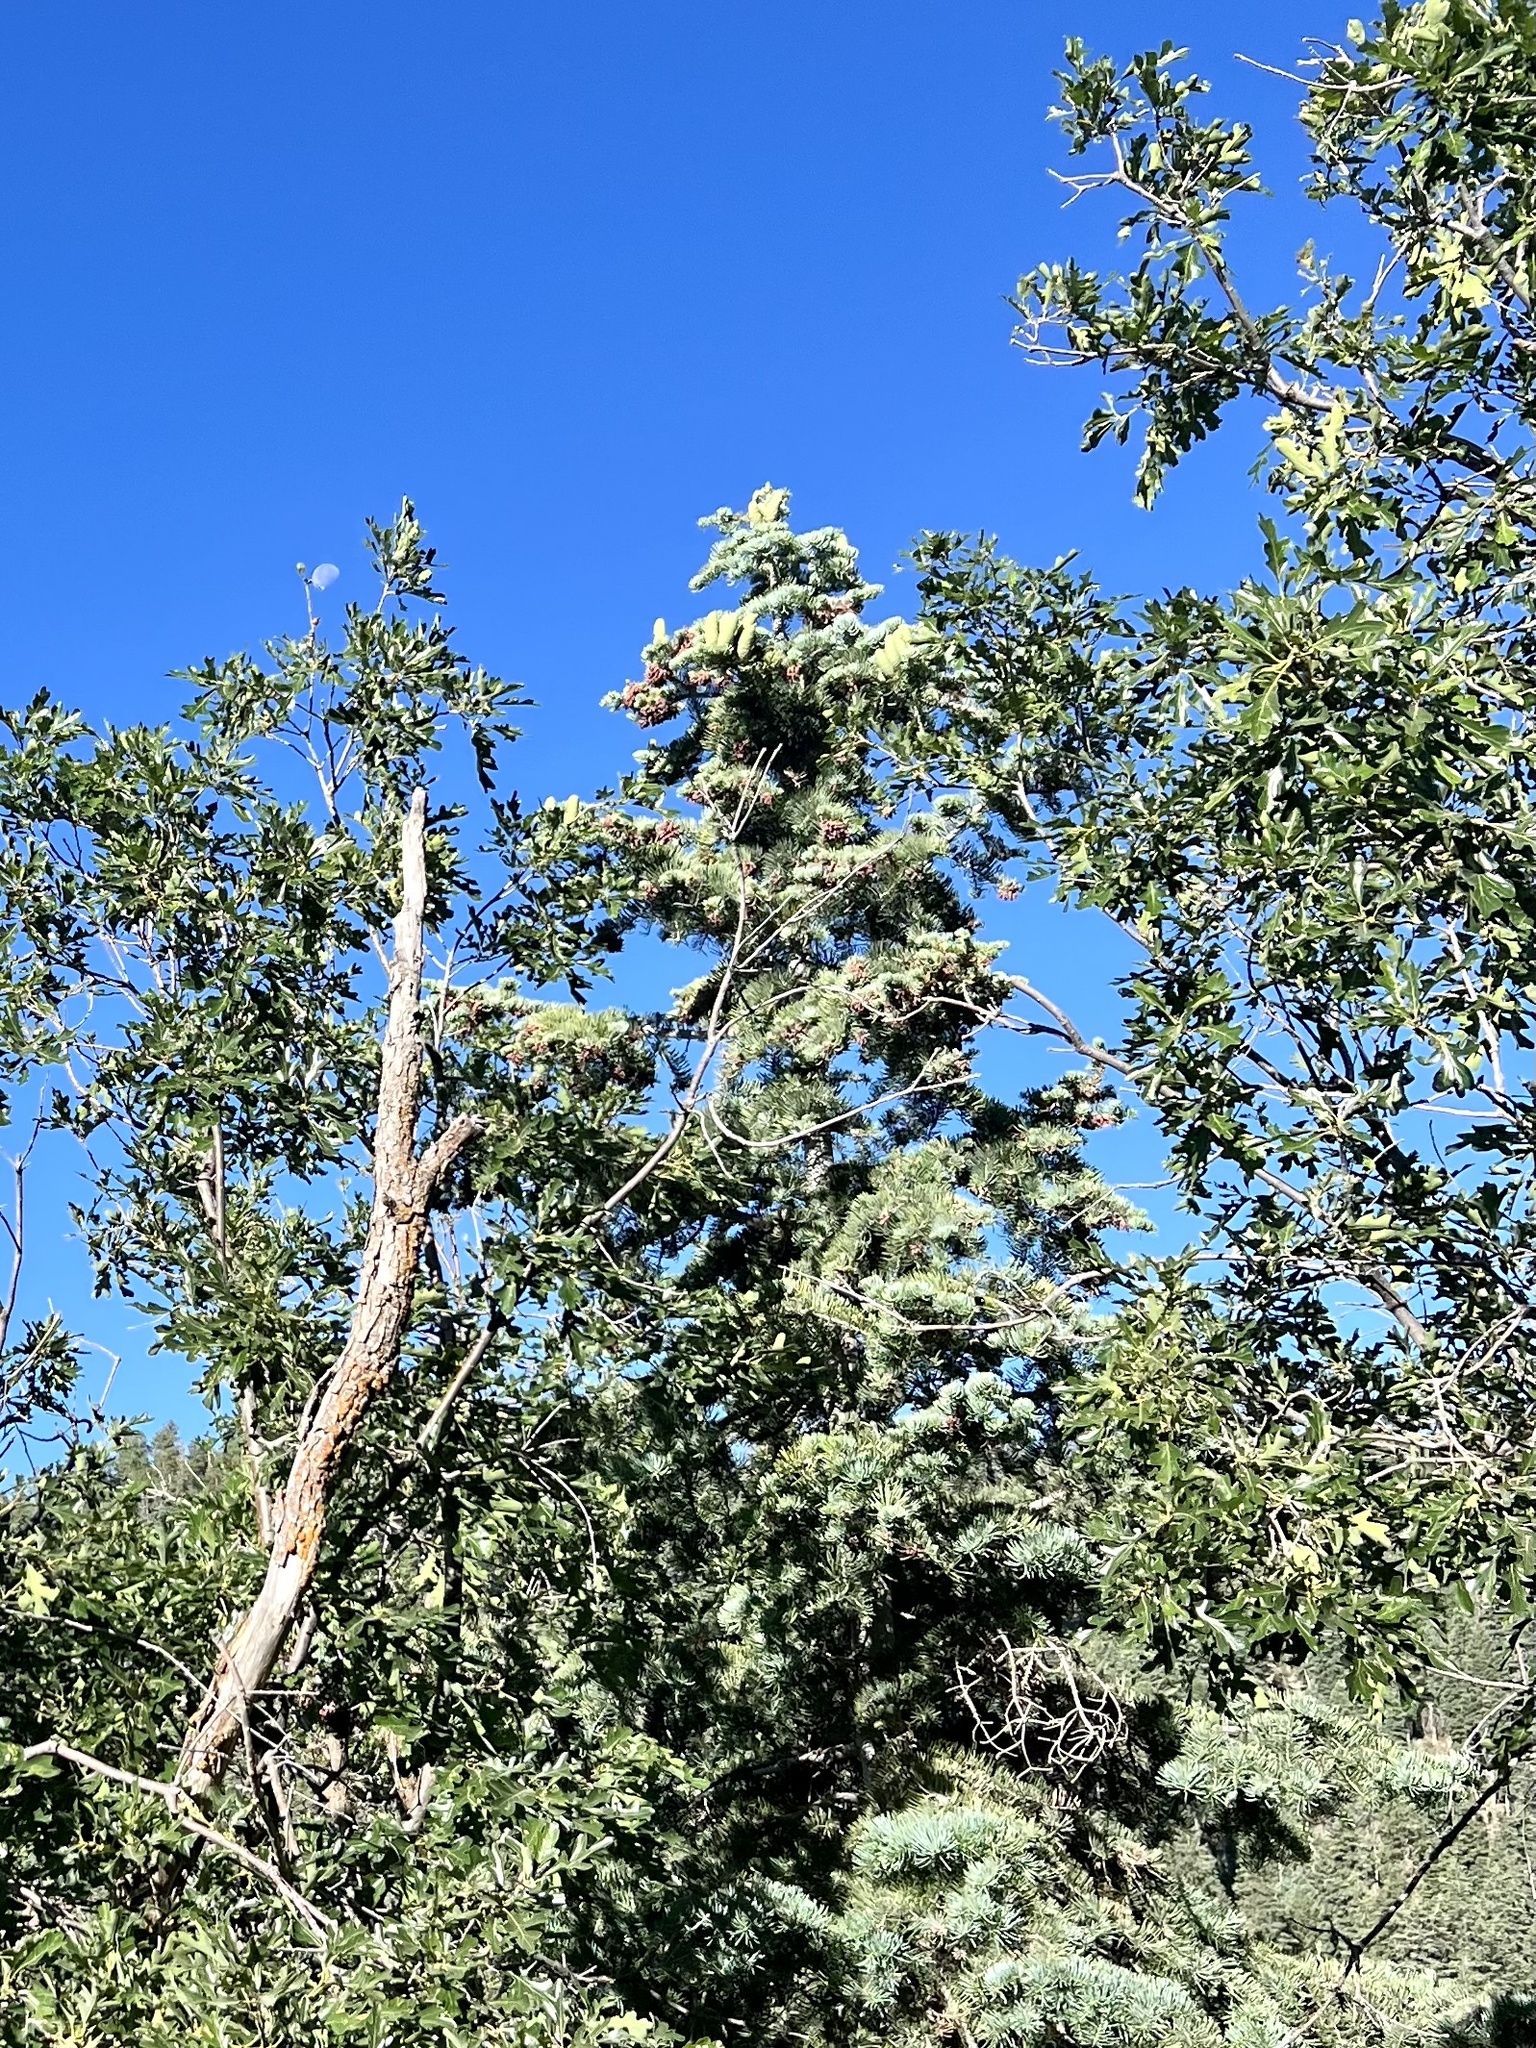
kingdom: Plantae
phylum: Tracheophyta
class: Pinopsida
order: Pinales
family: Pinaceae
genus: Abies
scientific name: Abies concolor
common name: Colorado fir
